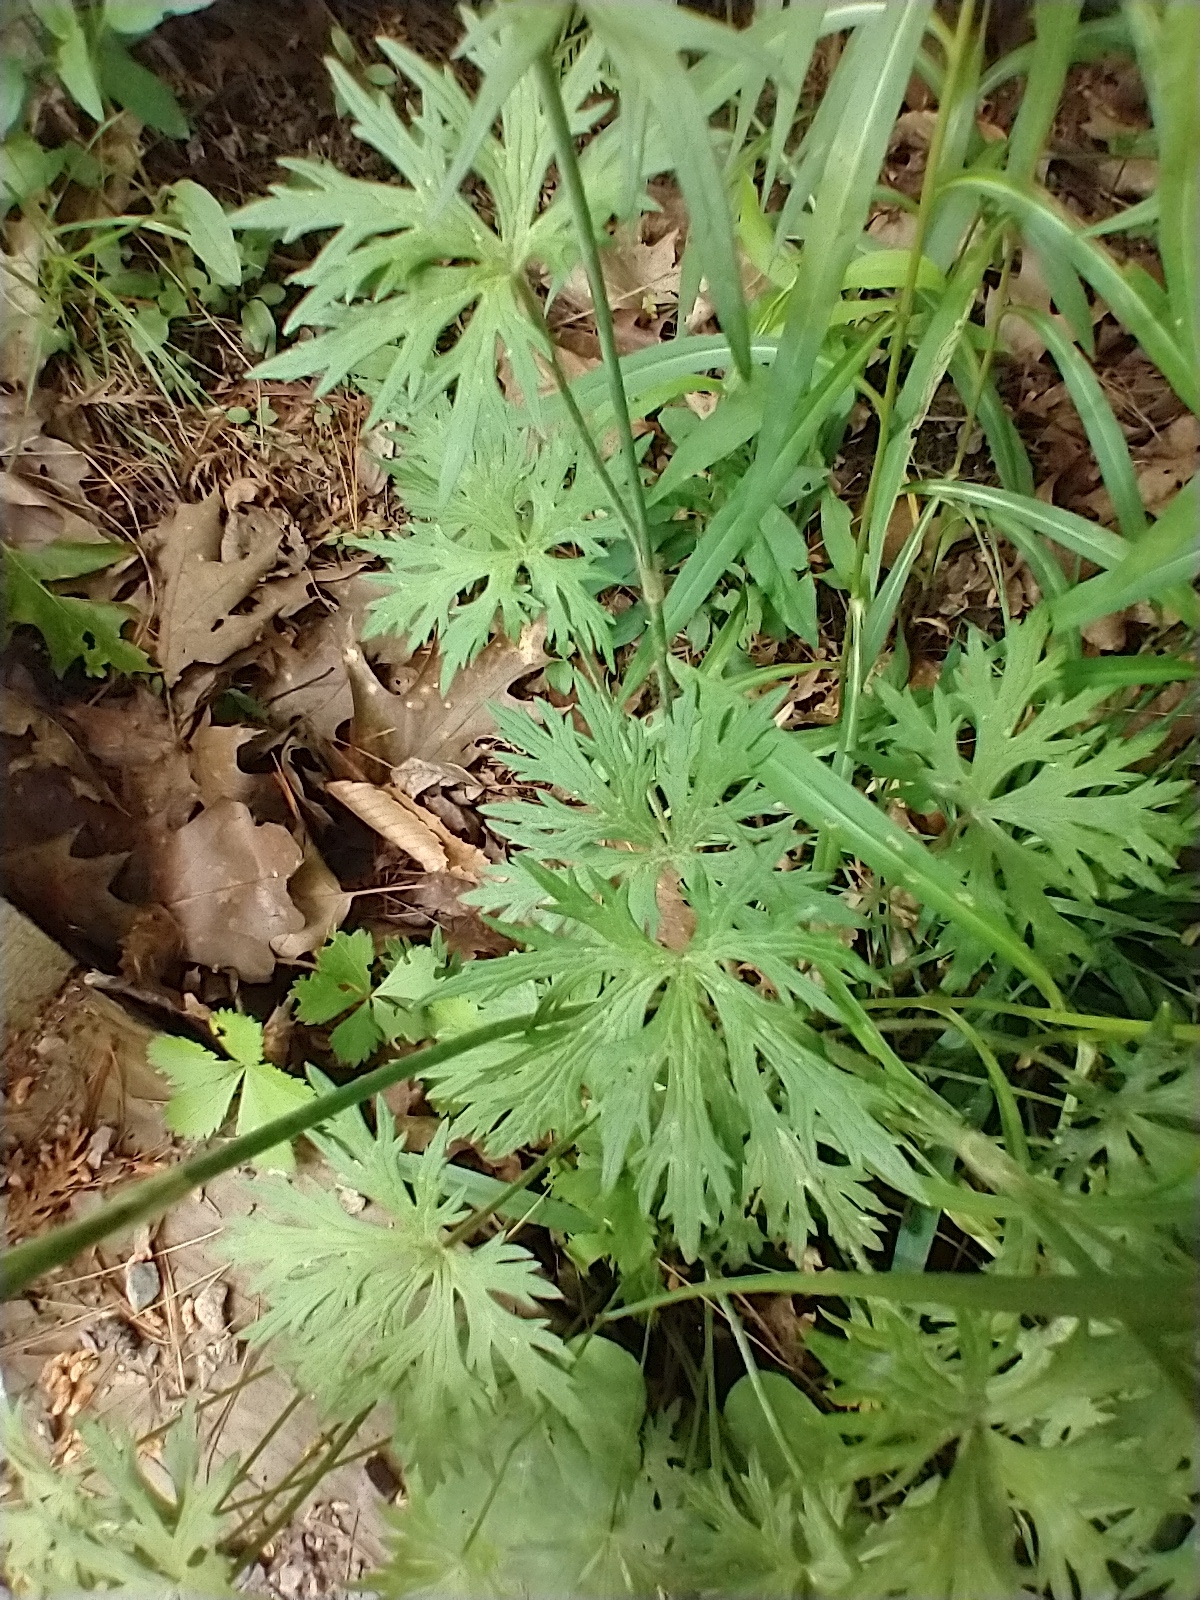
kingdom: Plantae
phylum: Tracheophyta
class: Magnoliopsida
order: Ranunculales
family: Ranunculaceae
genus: Ranunculus
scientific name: Ranunculus acris
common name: Meadow buttercup
